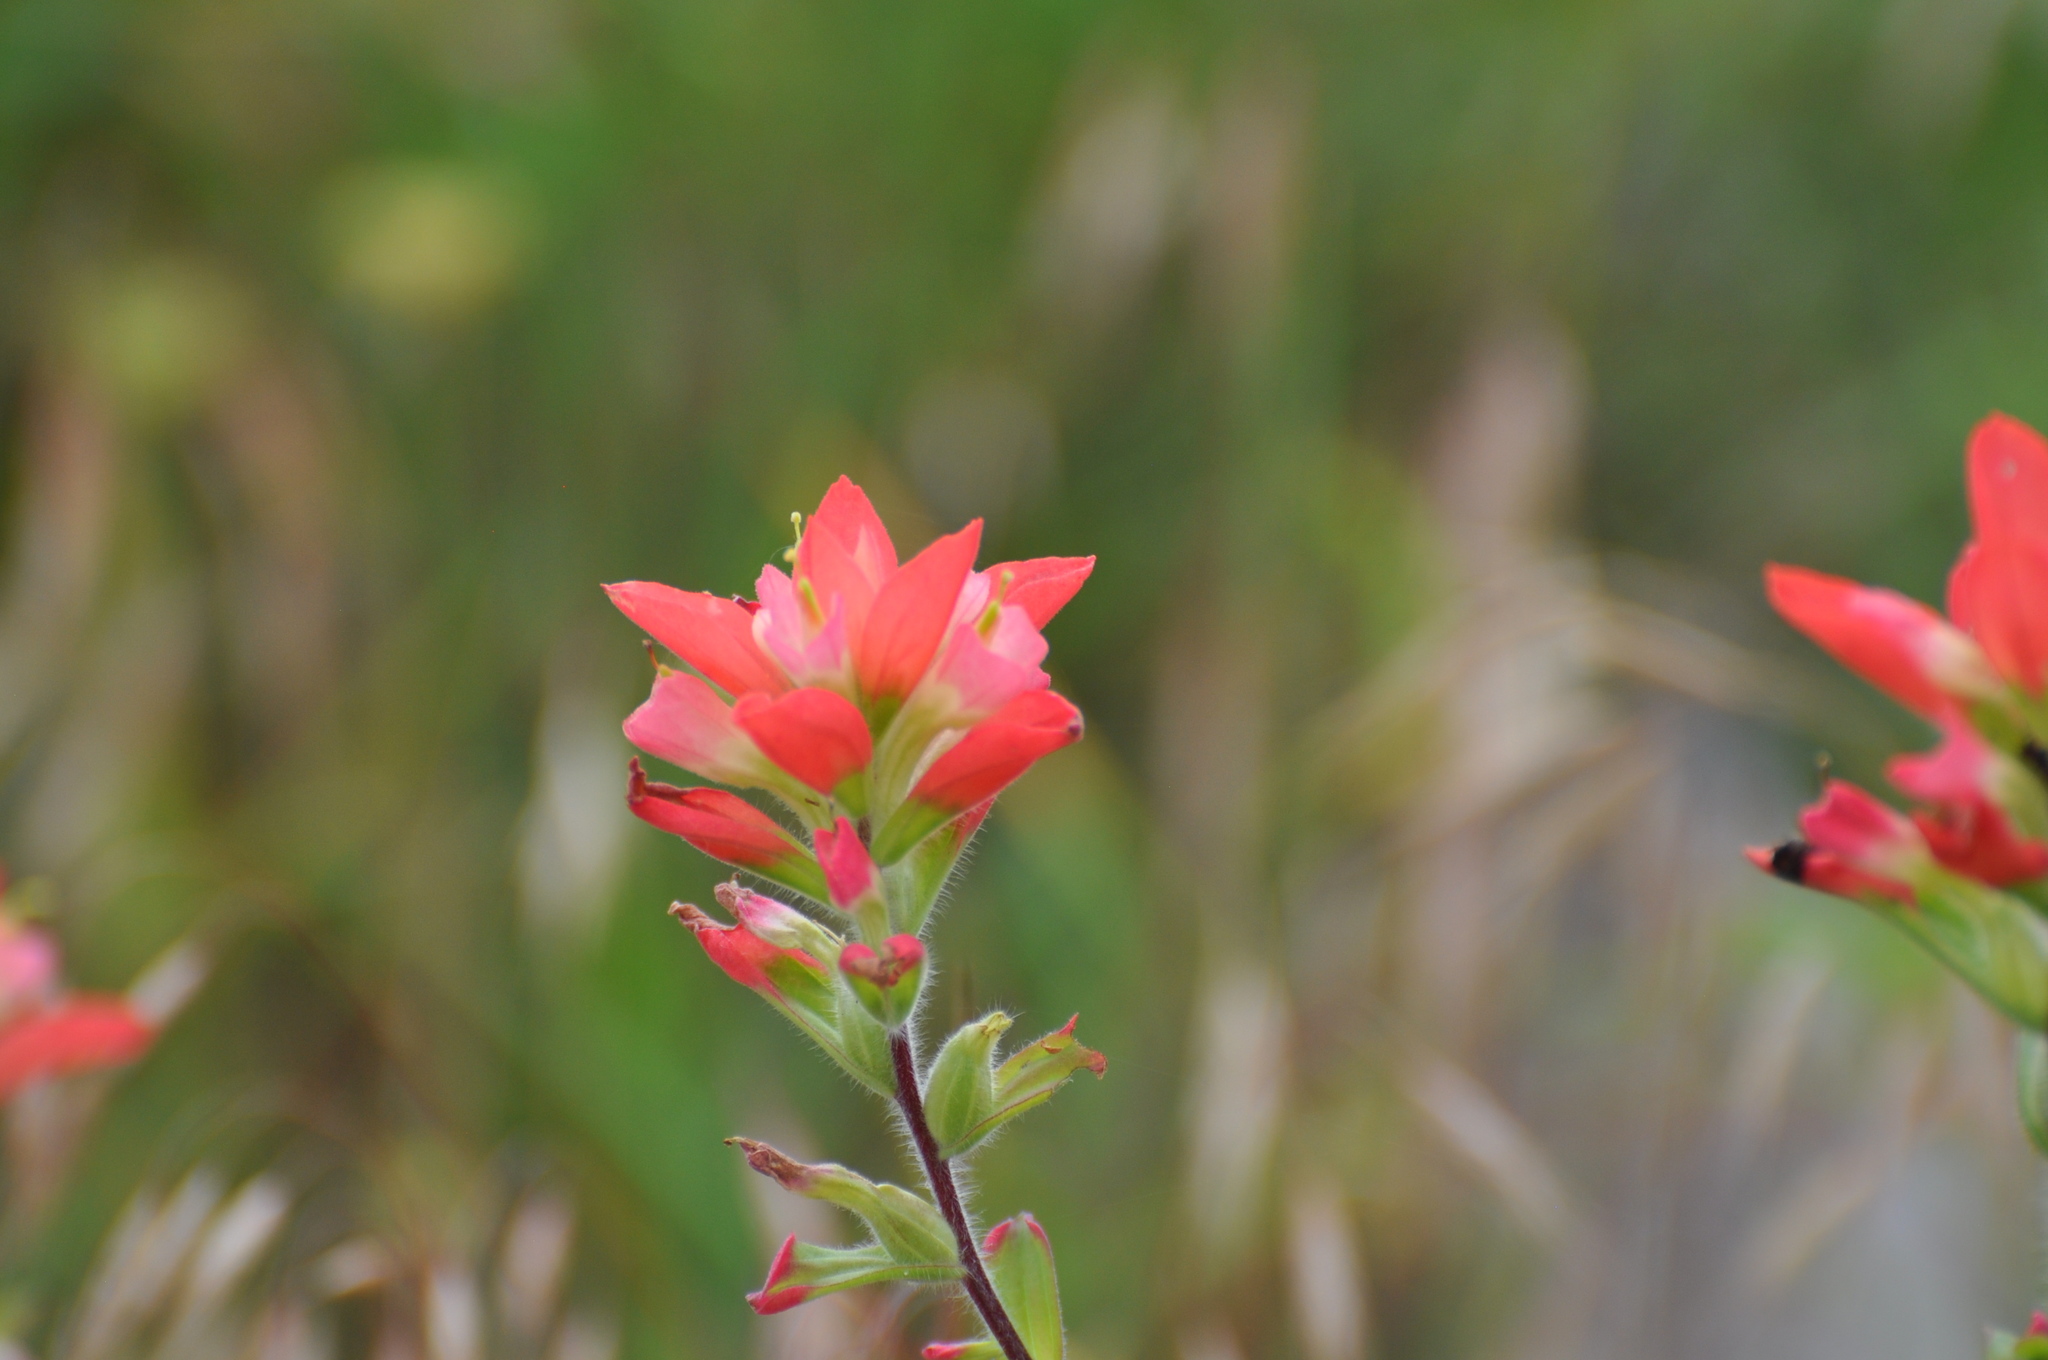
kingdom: Plantae
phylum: Tracheophyta
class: Magnoliopsida
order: Lamiales
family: Orobanchaceae
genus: Castilleja
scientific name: Castilleja indivisa
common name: Texas paintbrush
